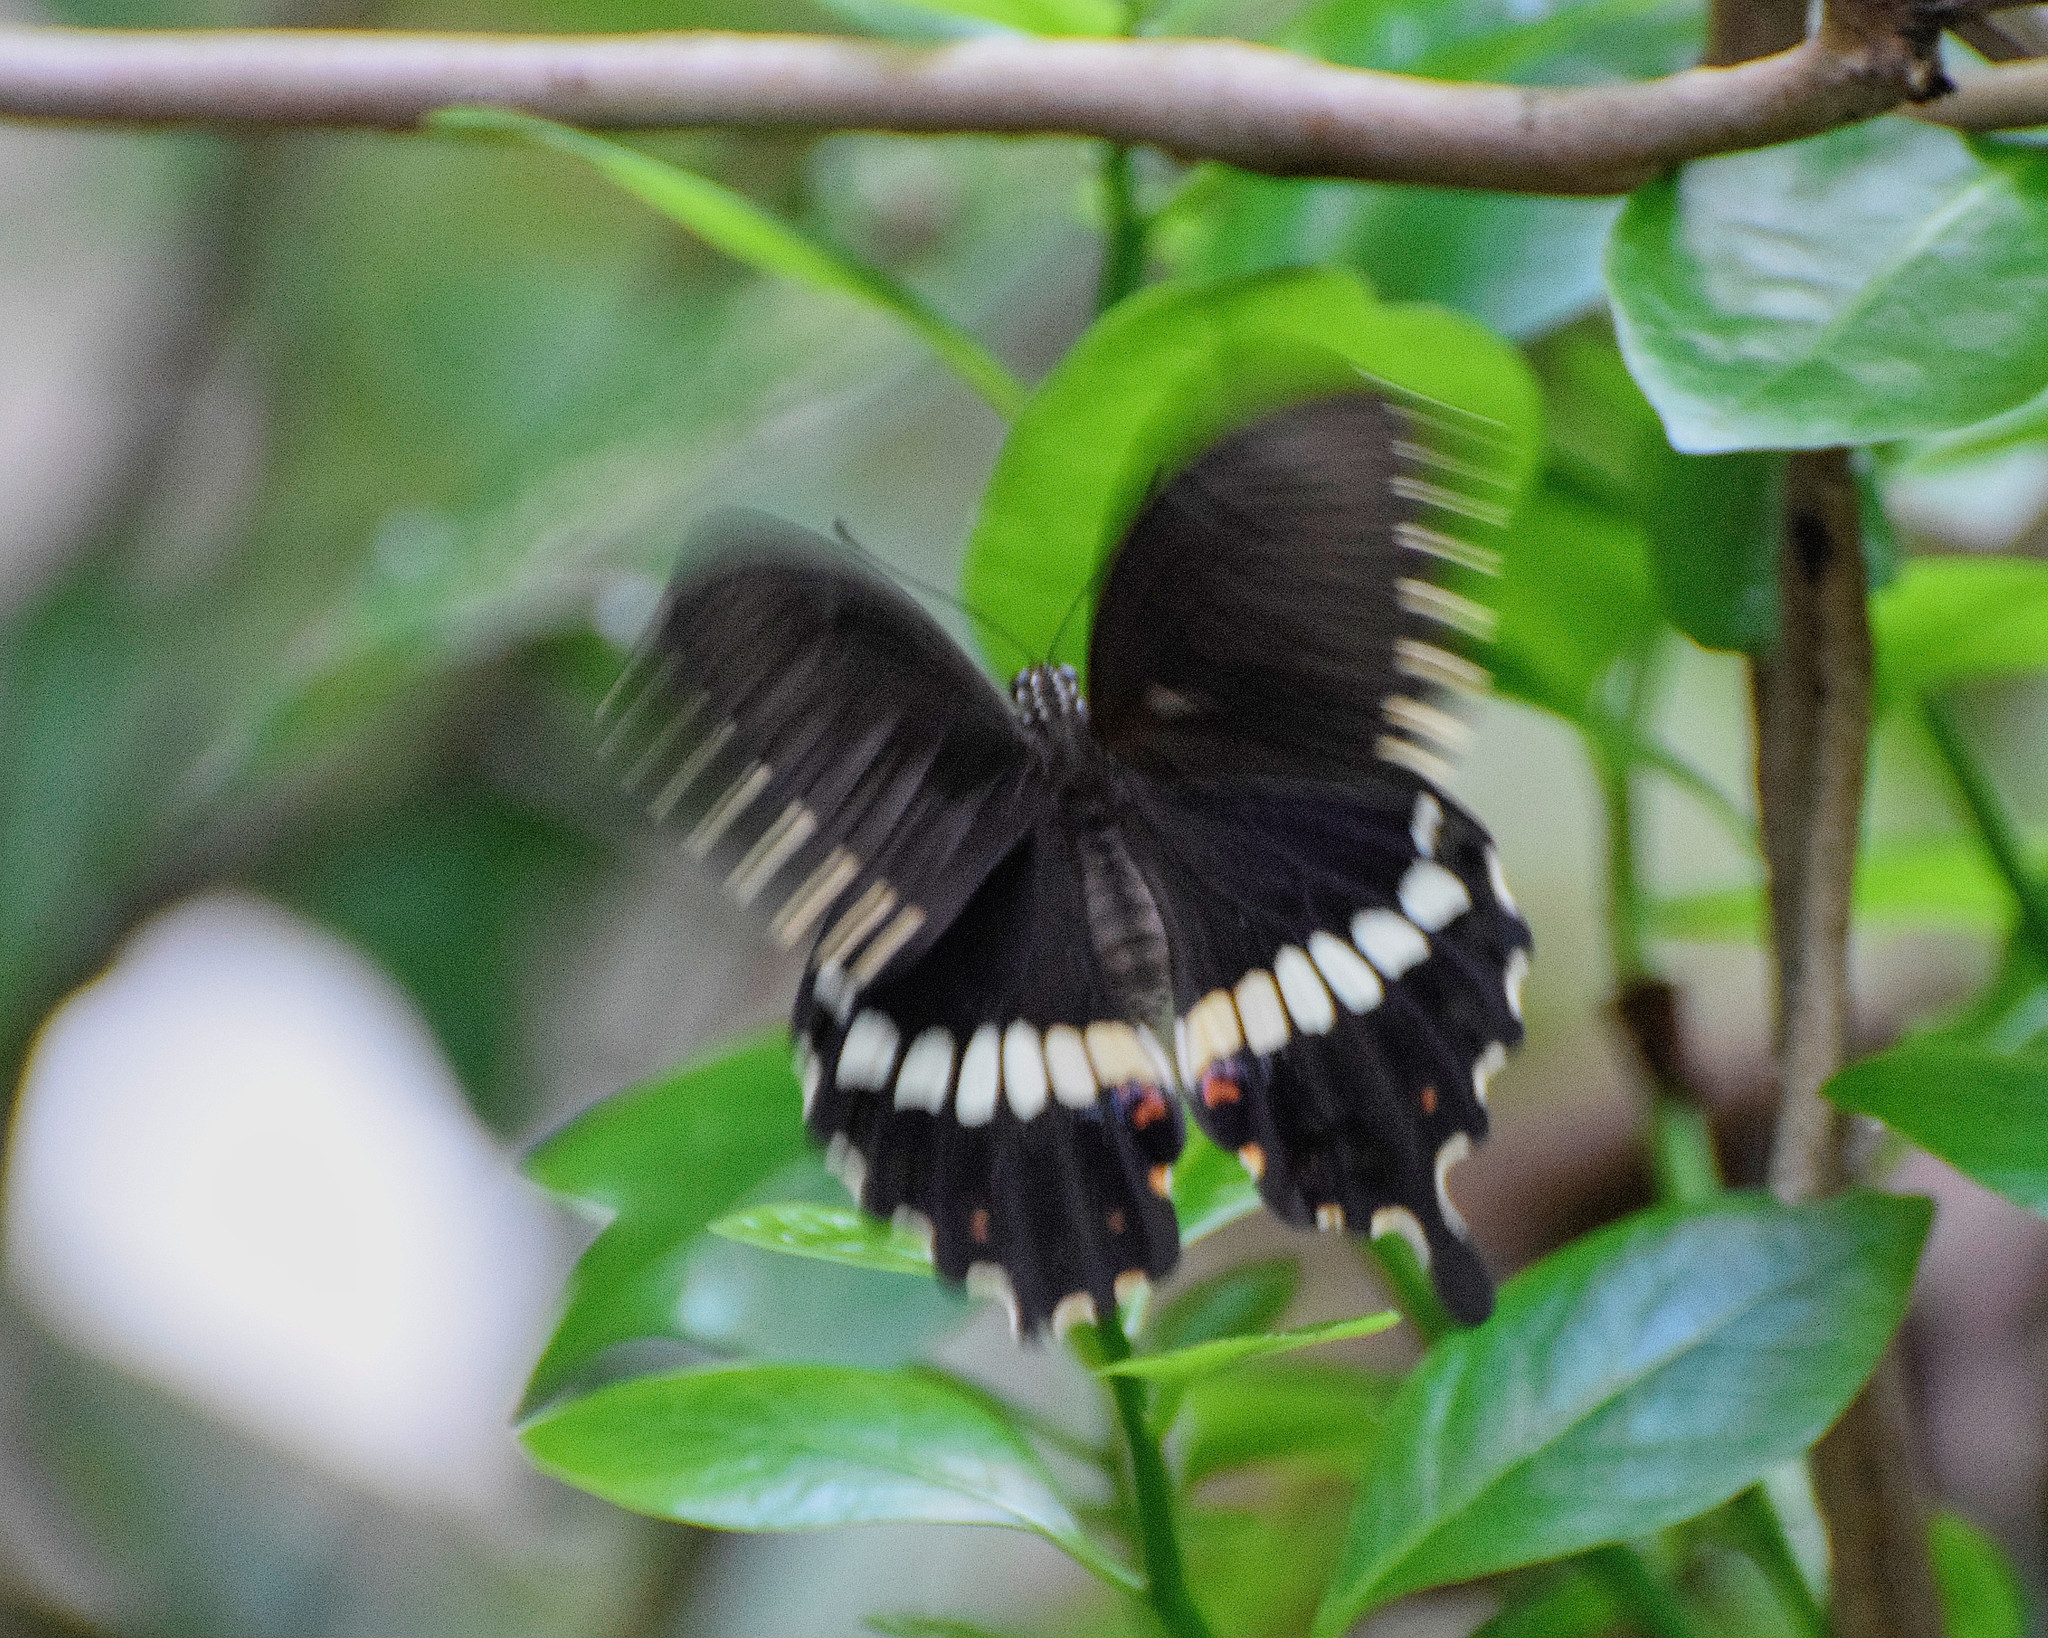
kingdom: Animalia
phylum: Arthropoda
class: Insecta
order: Lepidoptera
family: Papilionidae
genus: Papilio
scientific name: Papilio polytes
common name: Common mormon
